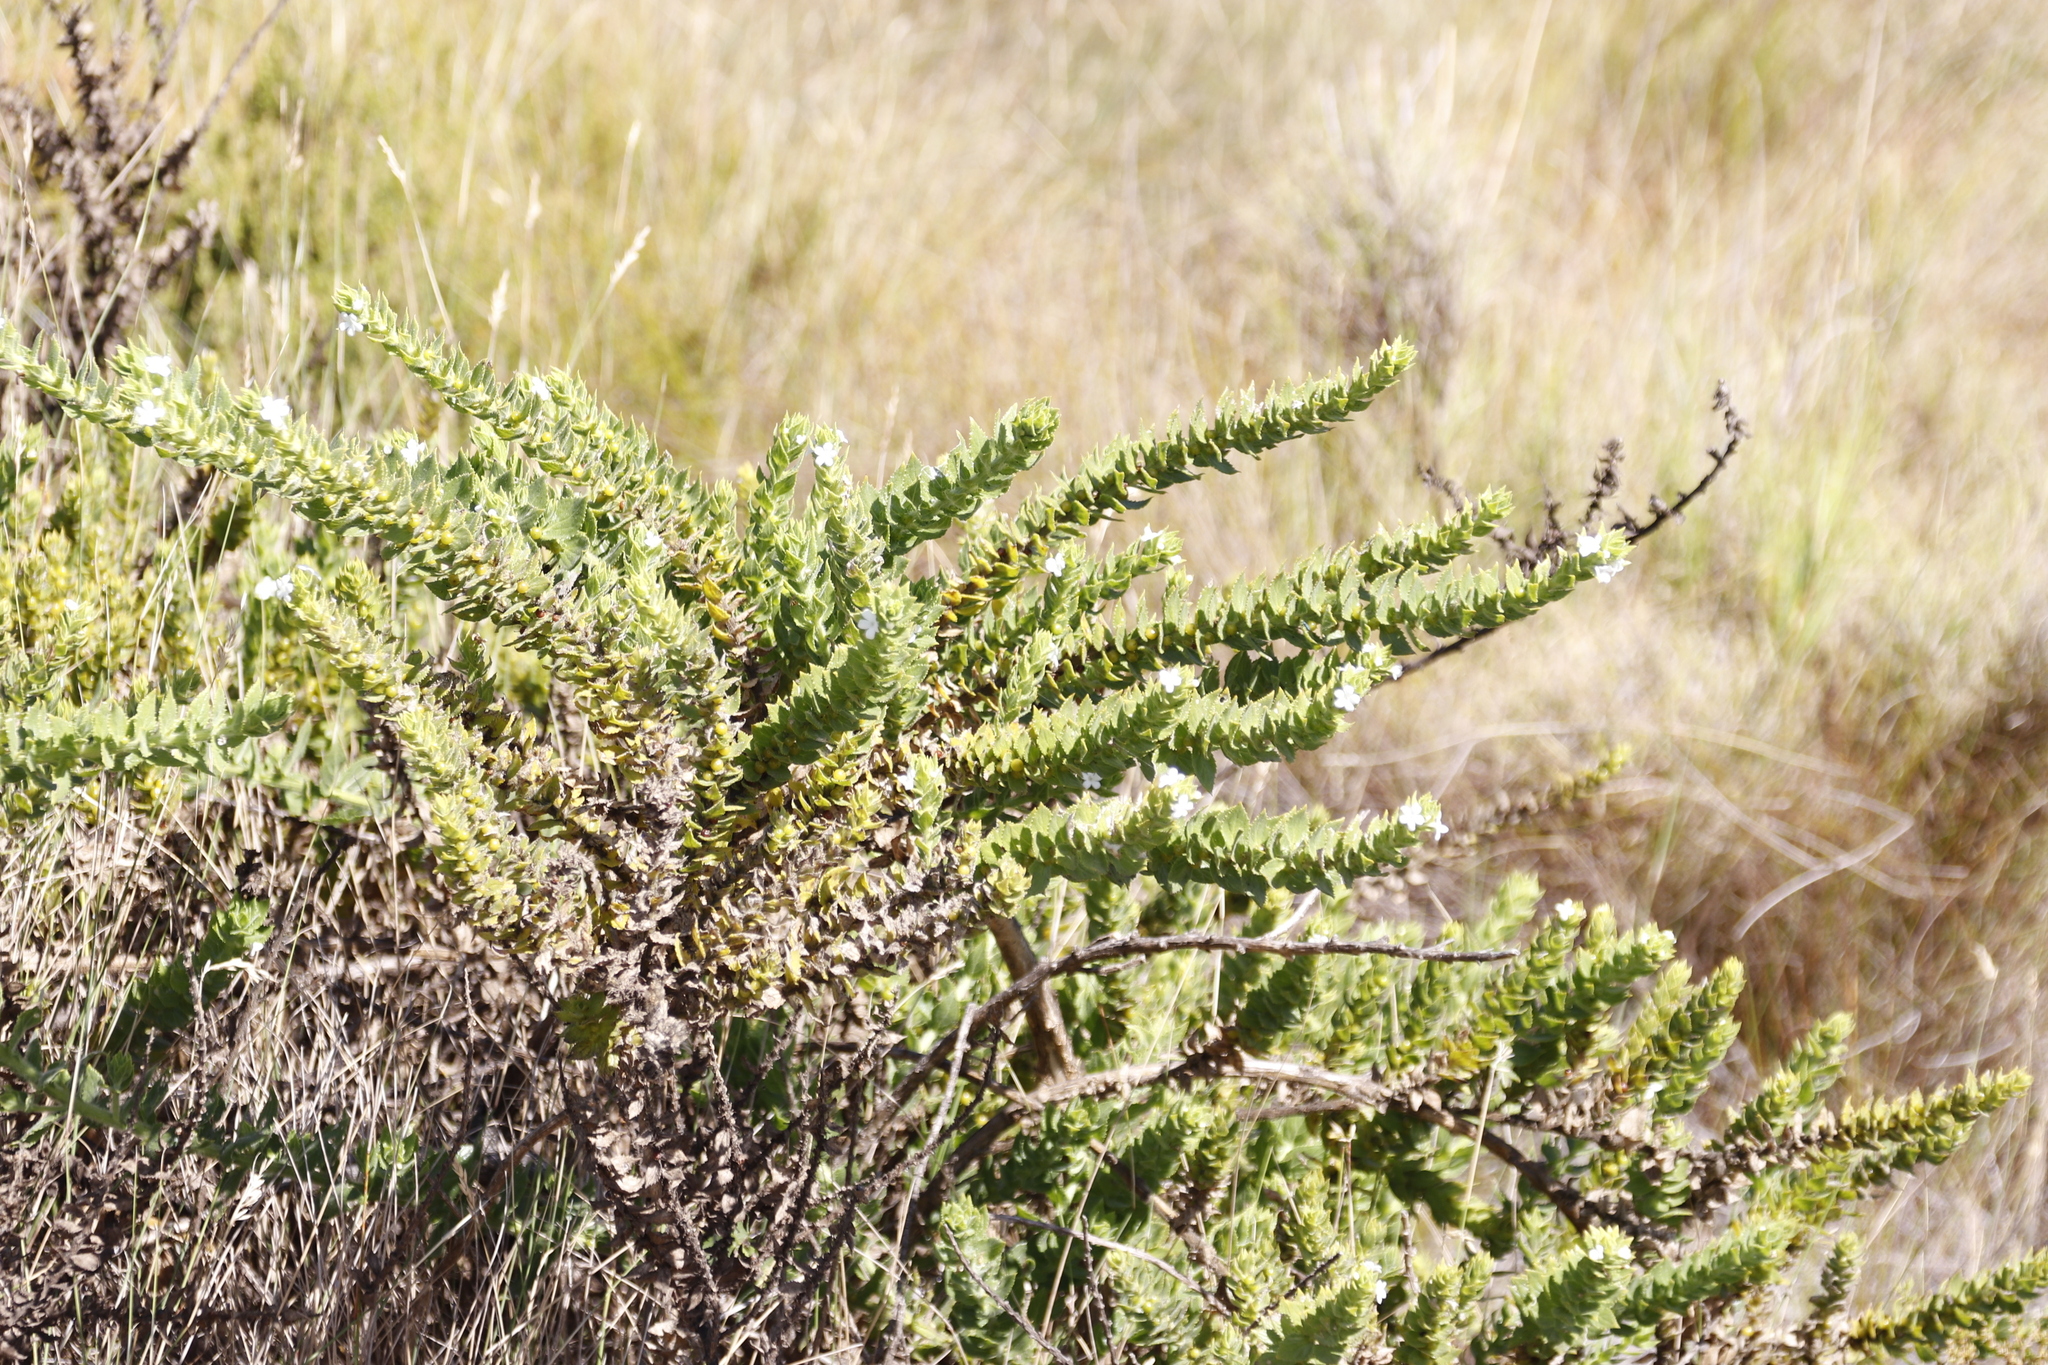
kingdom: Plantae
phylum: Tracheophyta
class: Magnoliopsida
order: Lamiales
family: Scrophulariaceae
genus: Oftia
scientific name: Oftia africana
